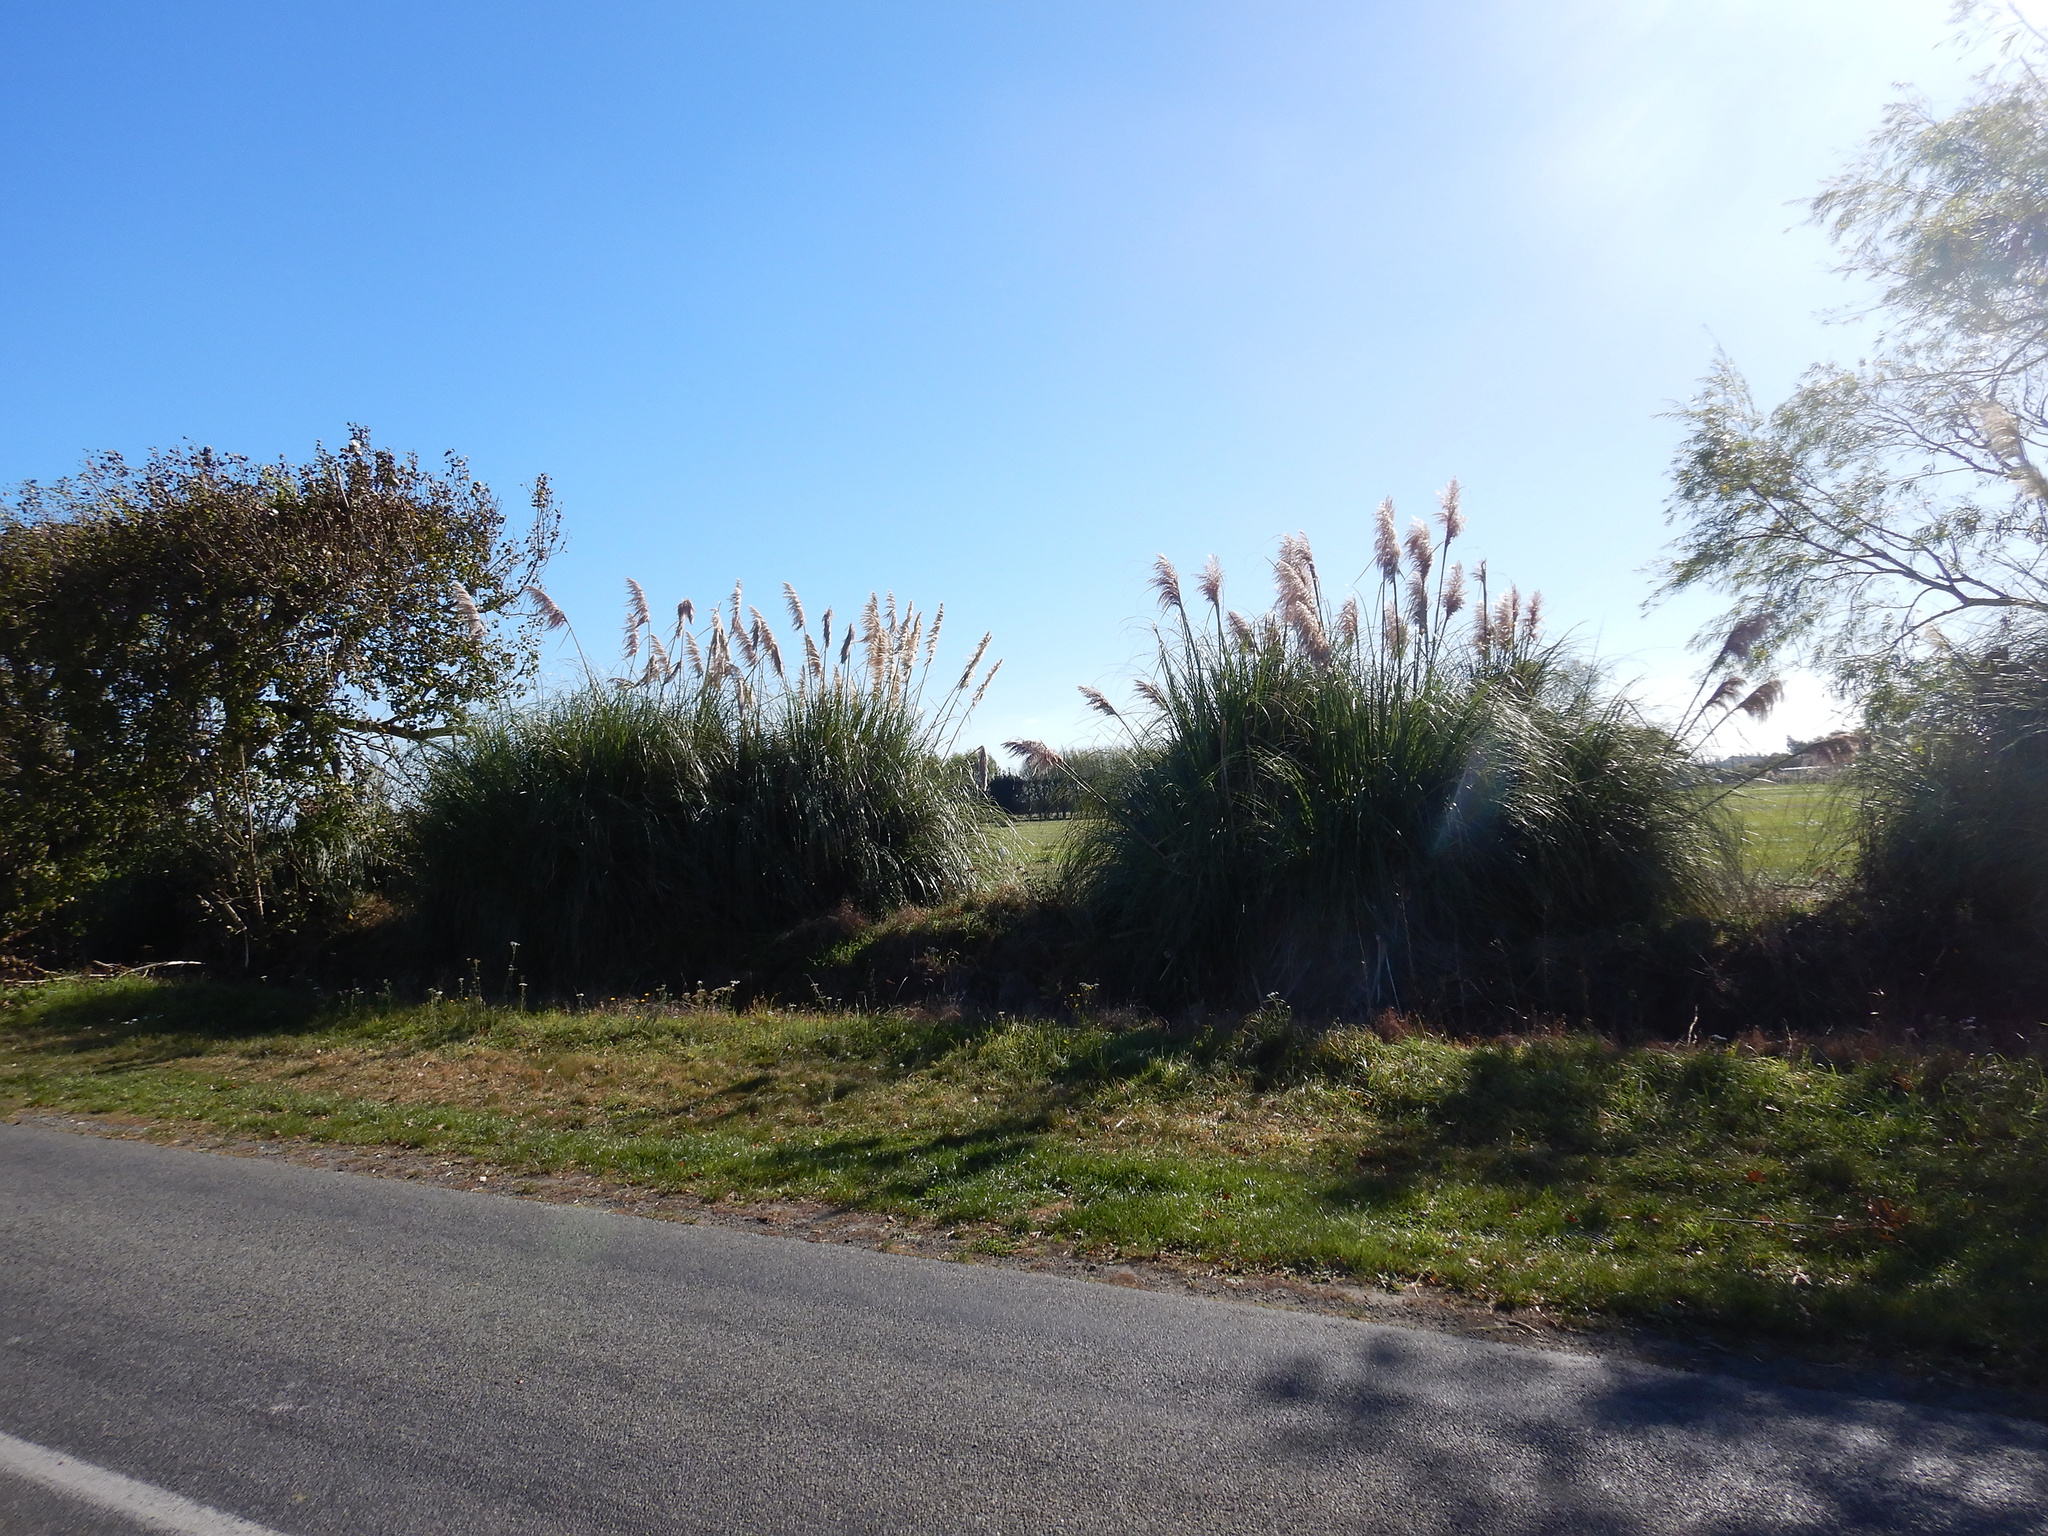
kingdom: Plantae
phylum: Tracheophyta
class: Liliopsida
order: Poales
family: Poaceae
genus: Cortaderia
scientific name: Cortaderia selloana
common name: Uruguayan pampas grass
